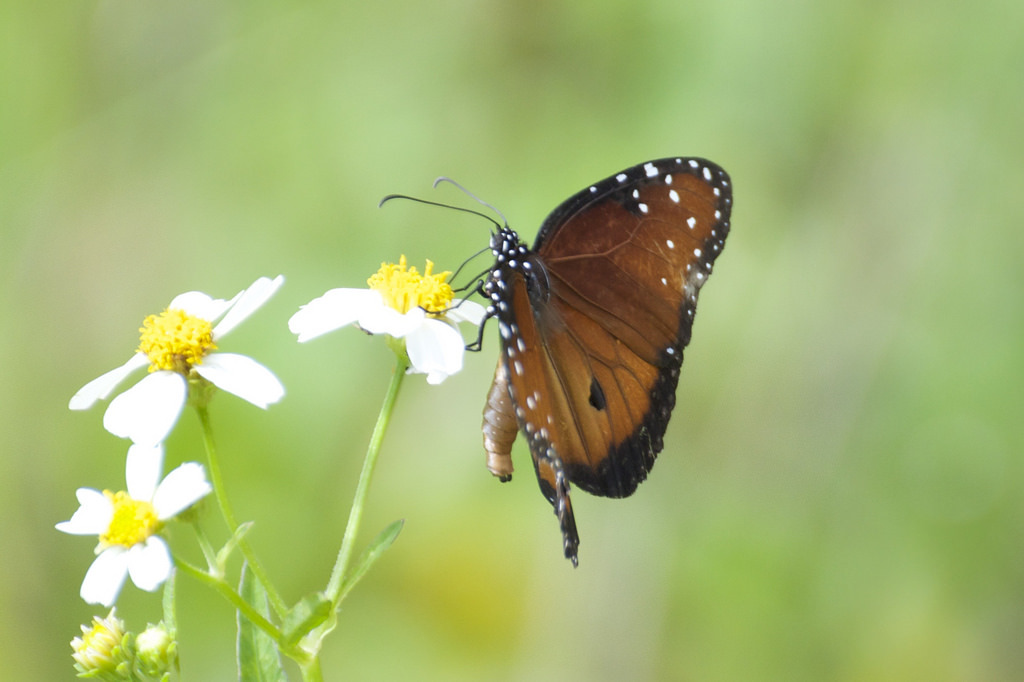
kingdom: Animalia
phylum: Arthropoda
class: Insecta
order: Lepidoptera
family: Nymphalidae
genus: Danaus
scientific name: Danaus gilippus
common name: Queen
